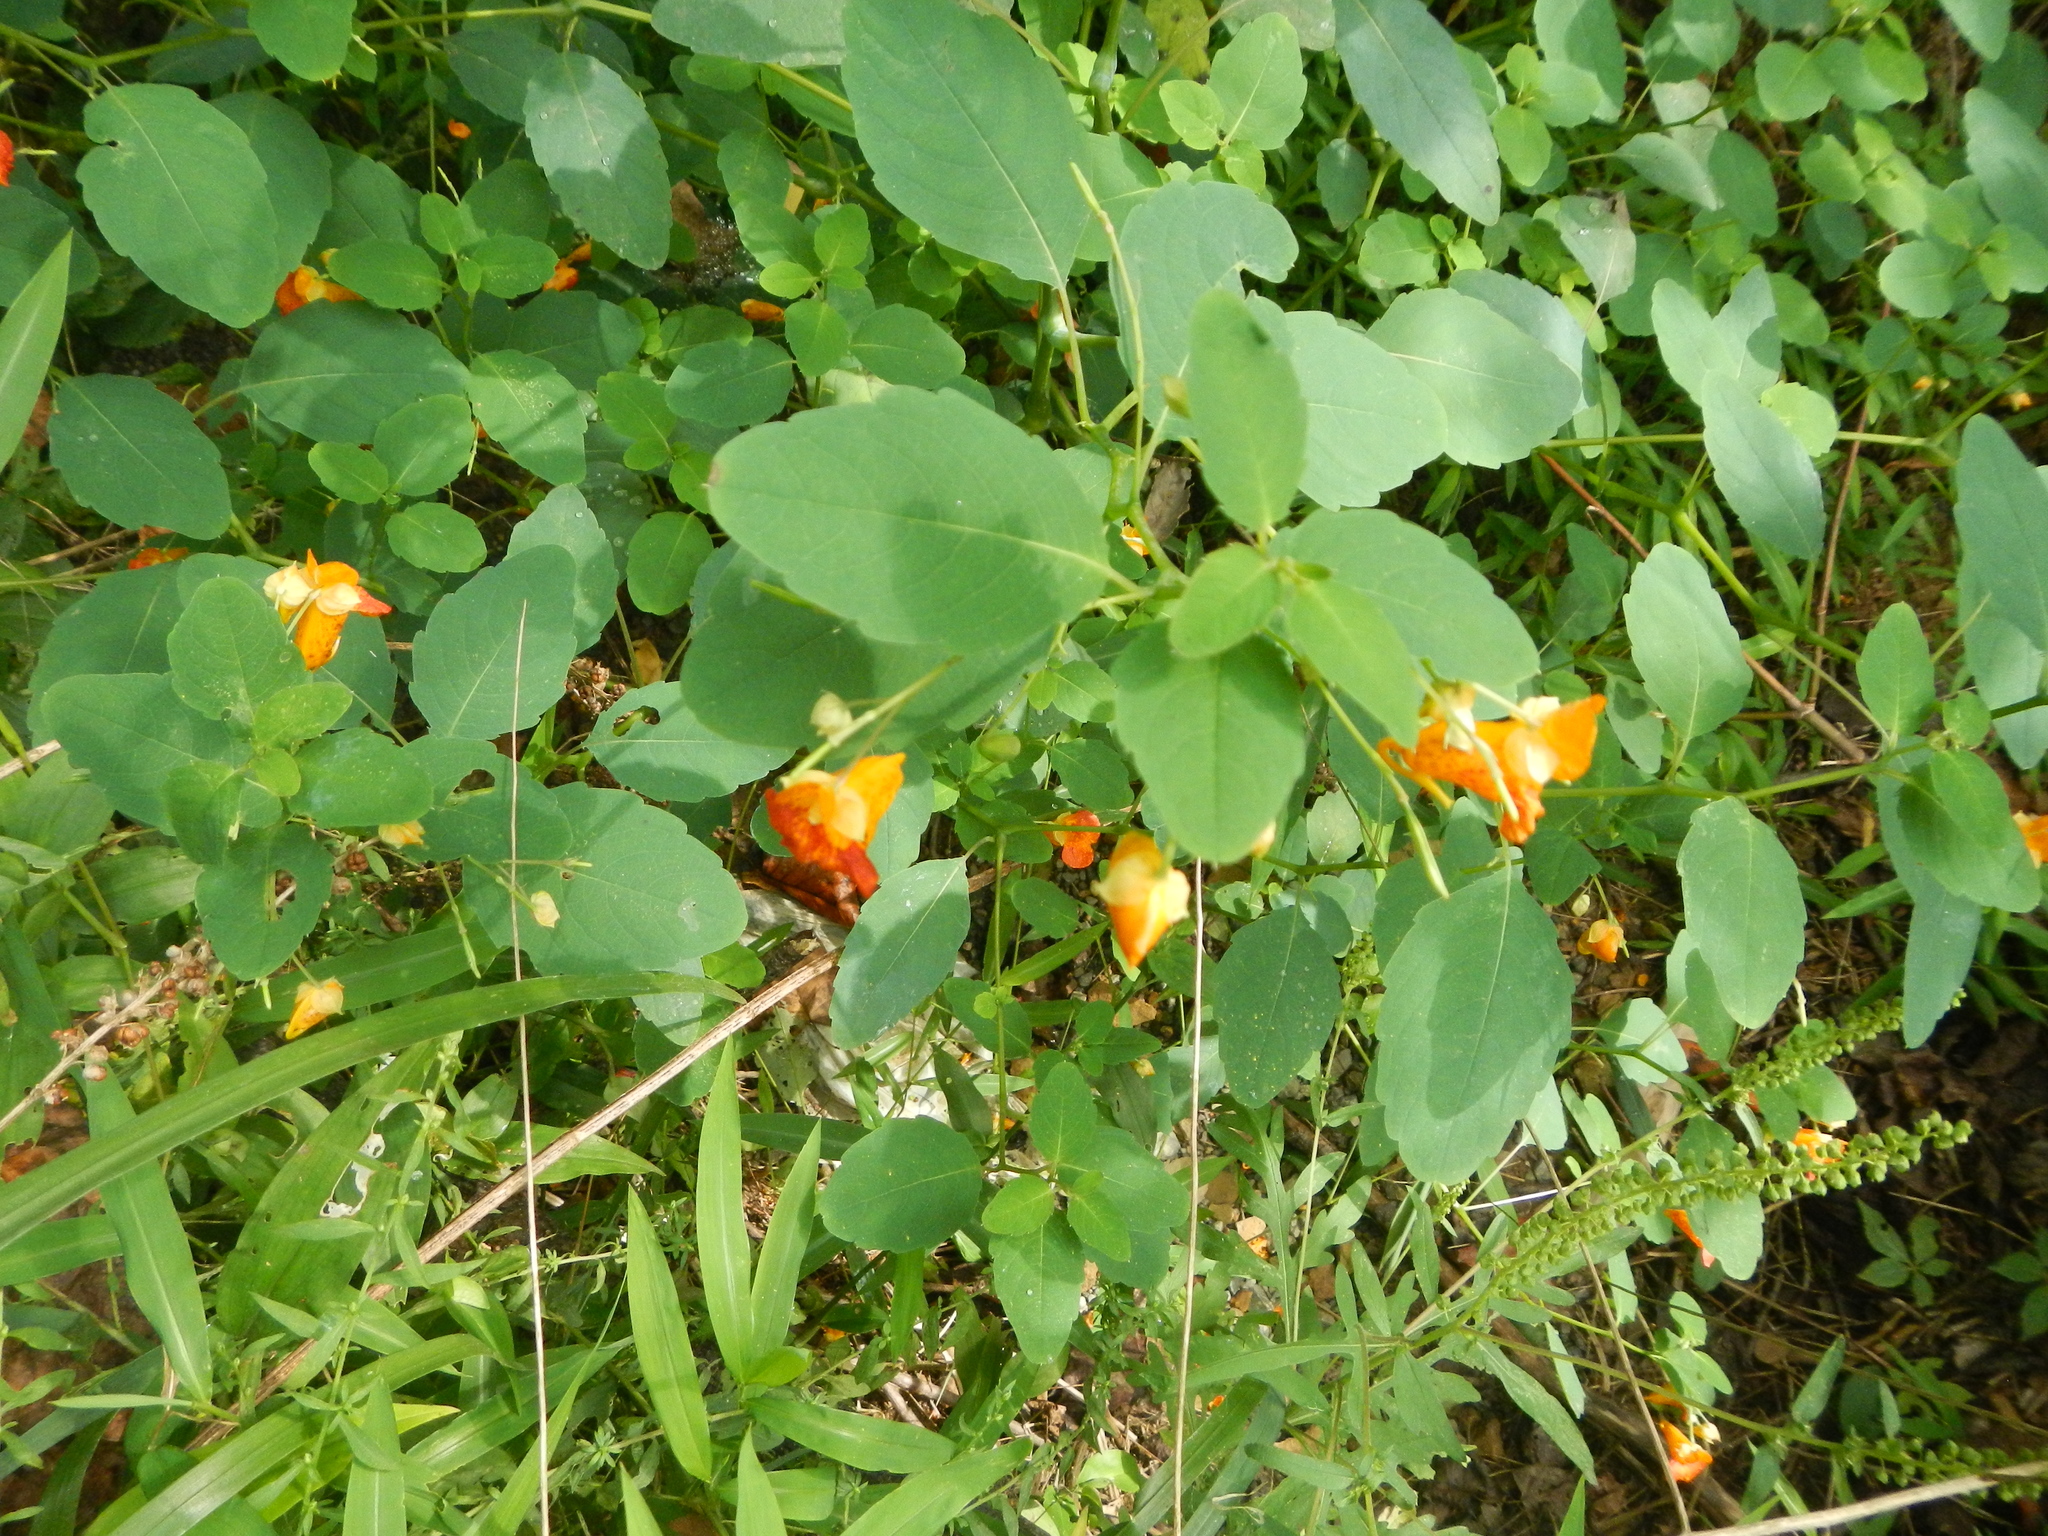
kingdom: Plantae
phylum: Tracheophyta
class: Magnoliopsida
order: Ericales
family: Balsaminaceae
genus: Impatiens
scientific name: Impatiens capensis
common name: Orange balsam
